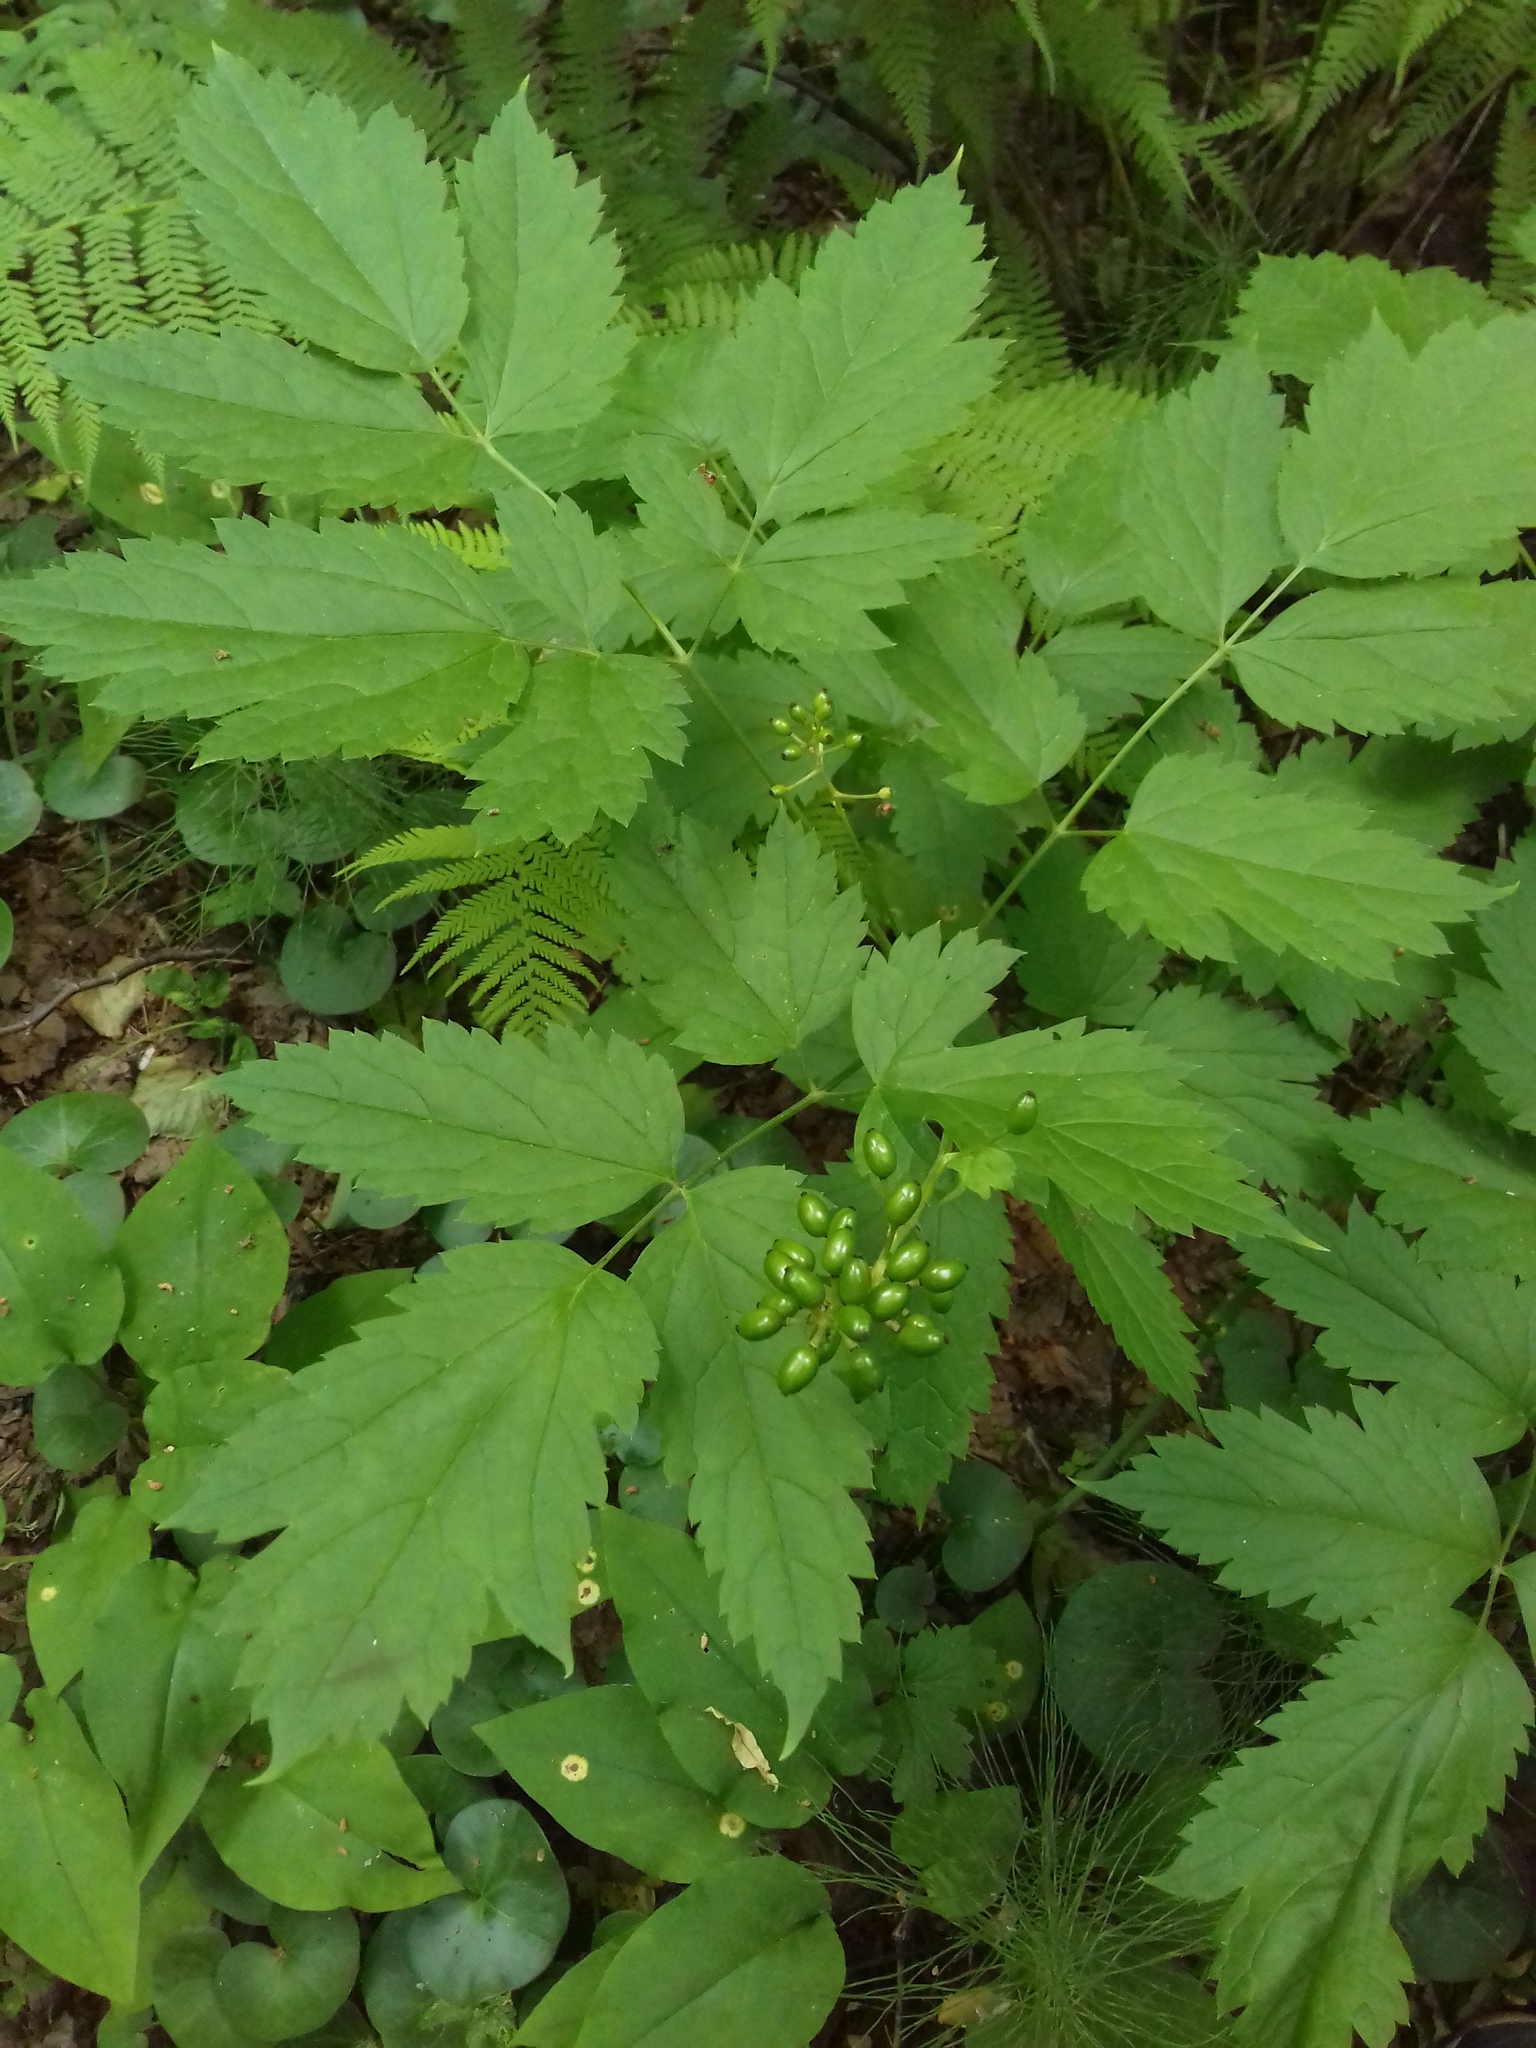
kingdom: Plantae
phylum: Tracheophyta
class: Magnoliopsida
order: Ranunculales
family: Ranunculaceae
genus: Actaea
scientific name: Actaea spicata
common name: Baneberry
